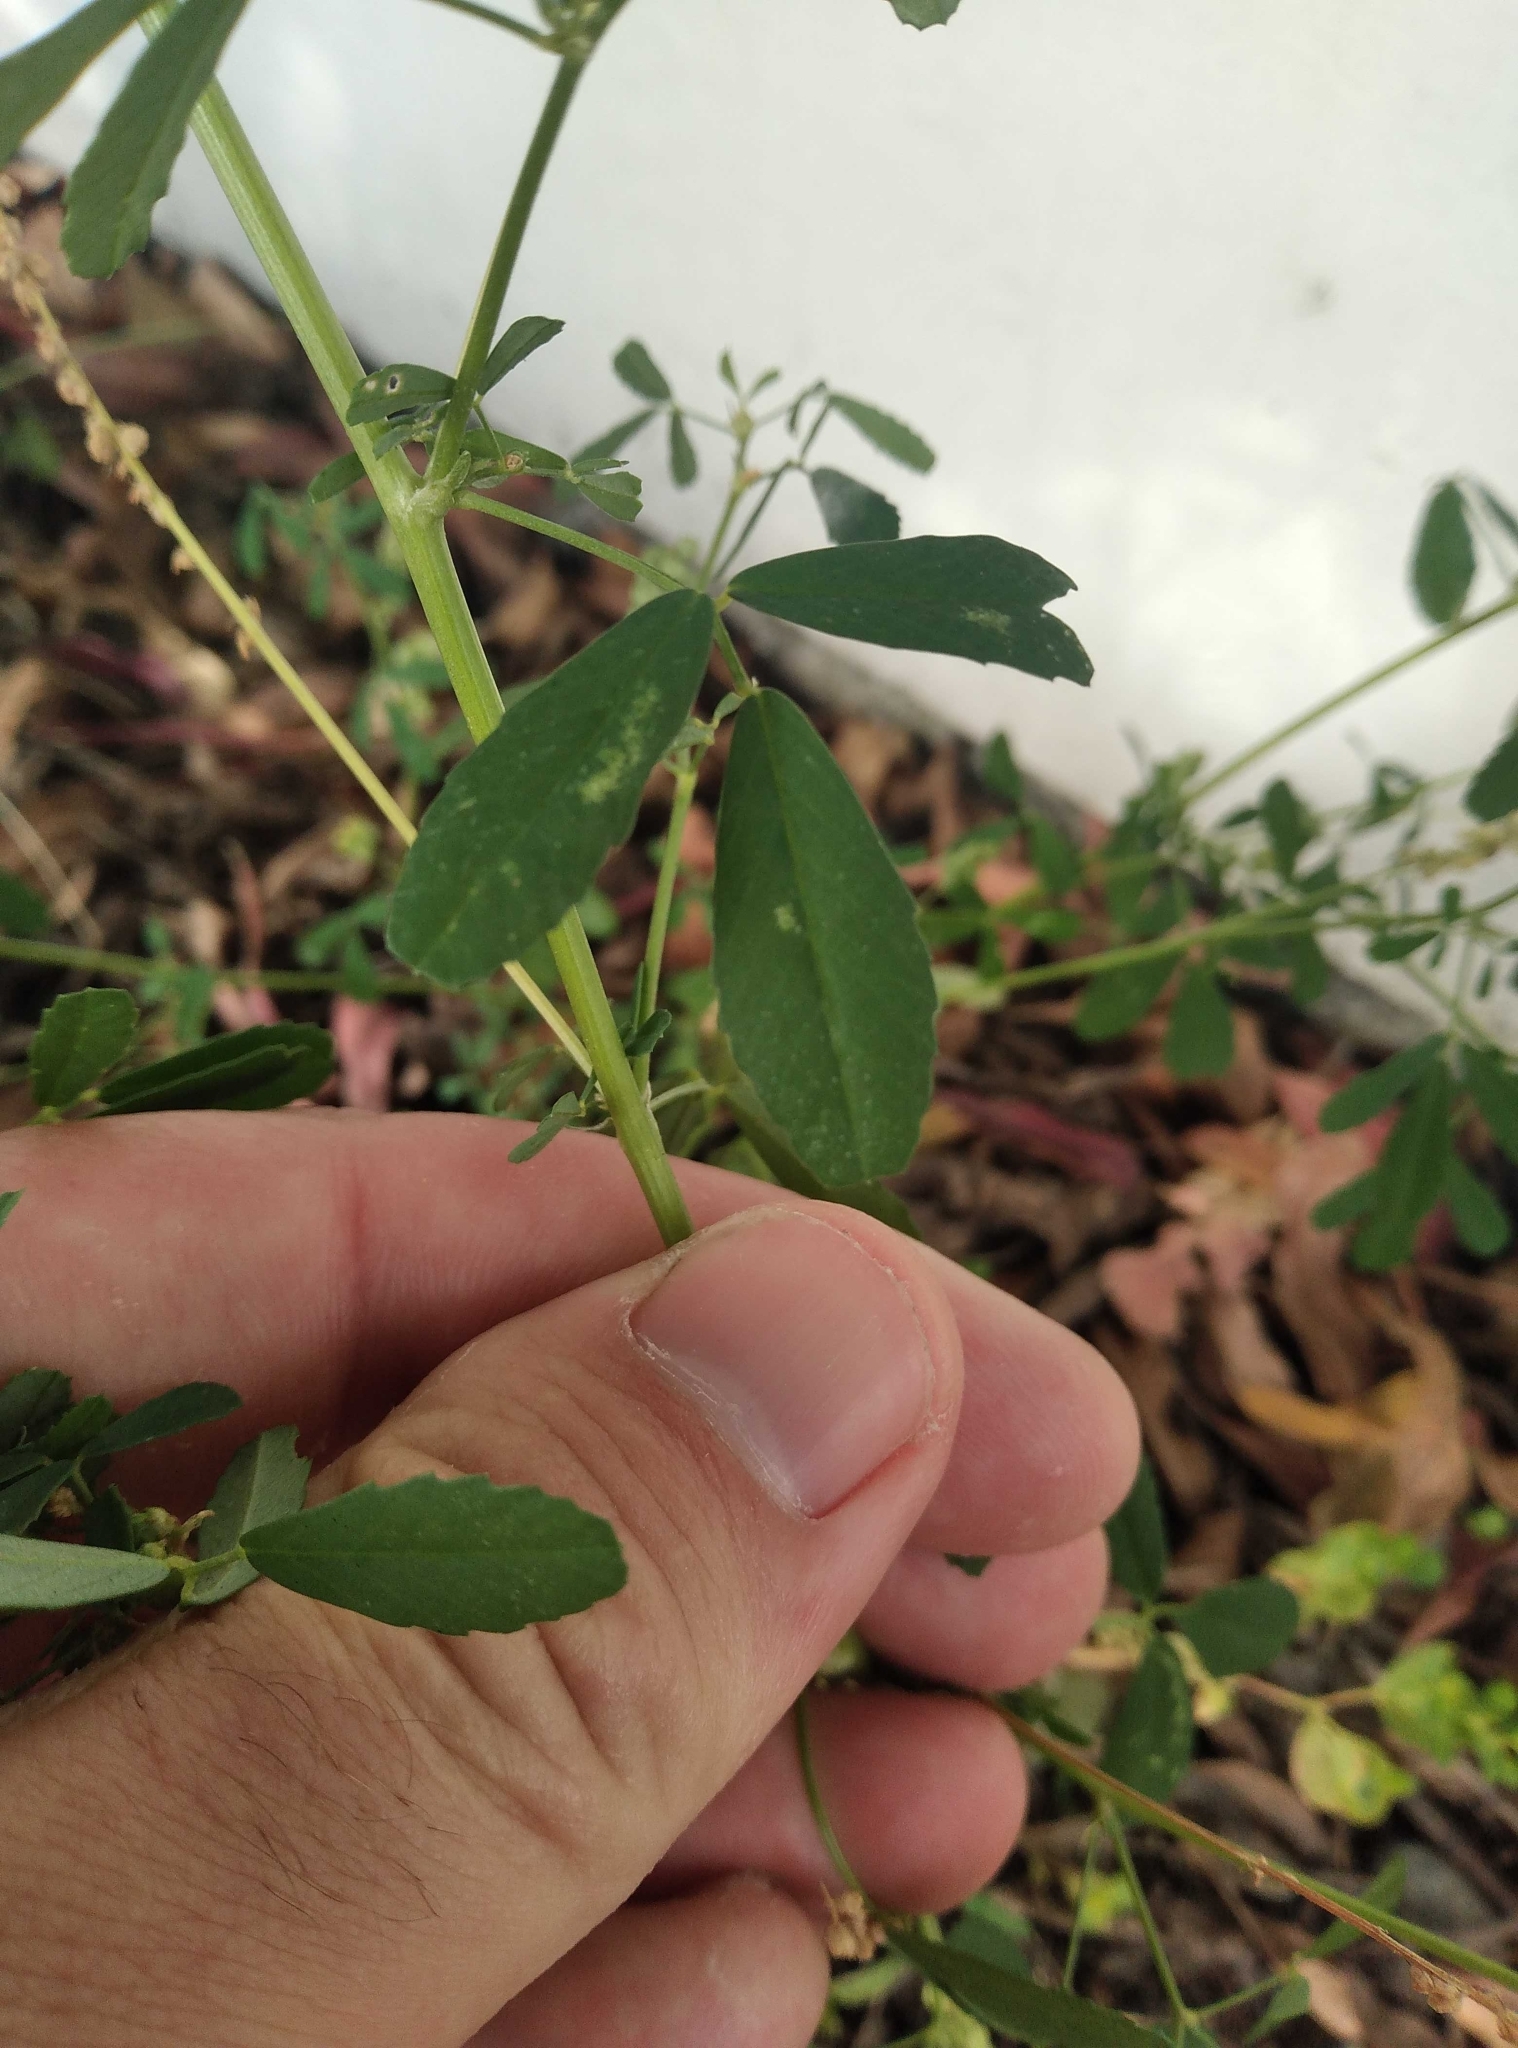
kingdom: Plantae
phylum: Tracheophyta
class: Magnoliopsida
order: Fabales
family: Fabaceae
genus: Melilotus
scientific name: Melilotus albus
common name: White melilot
